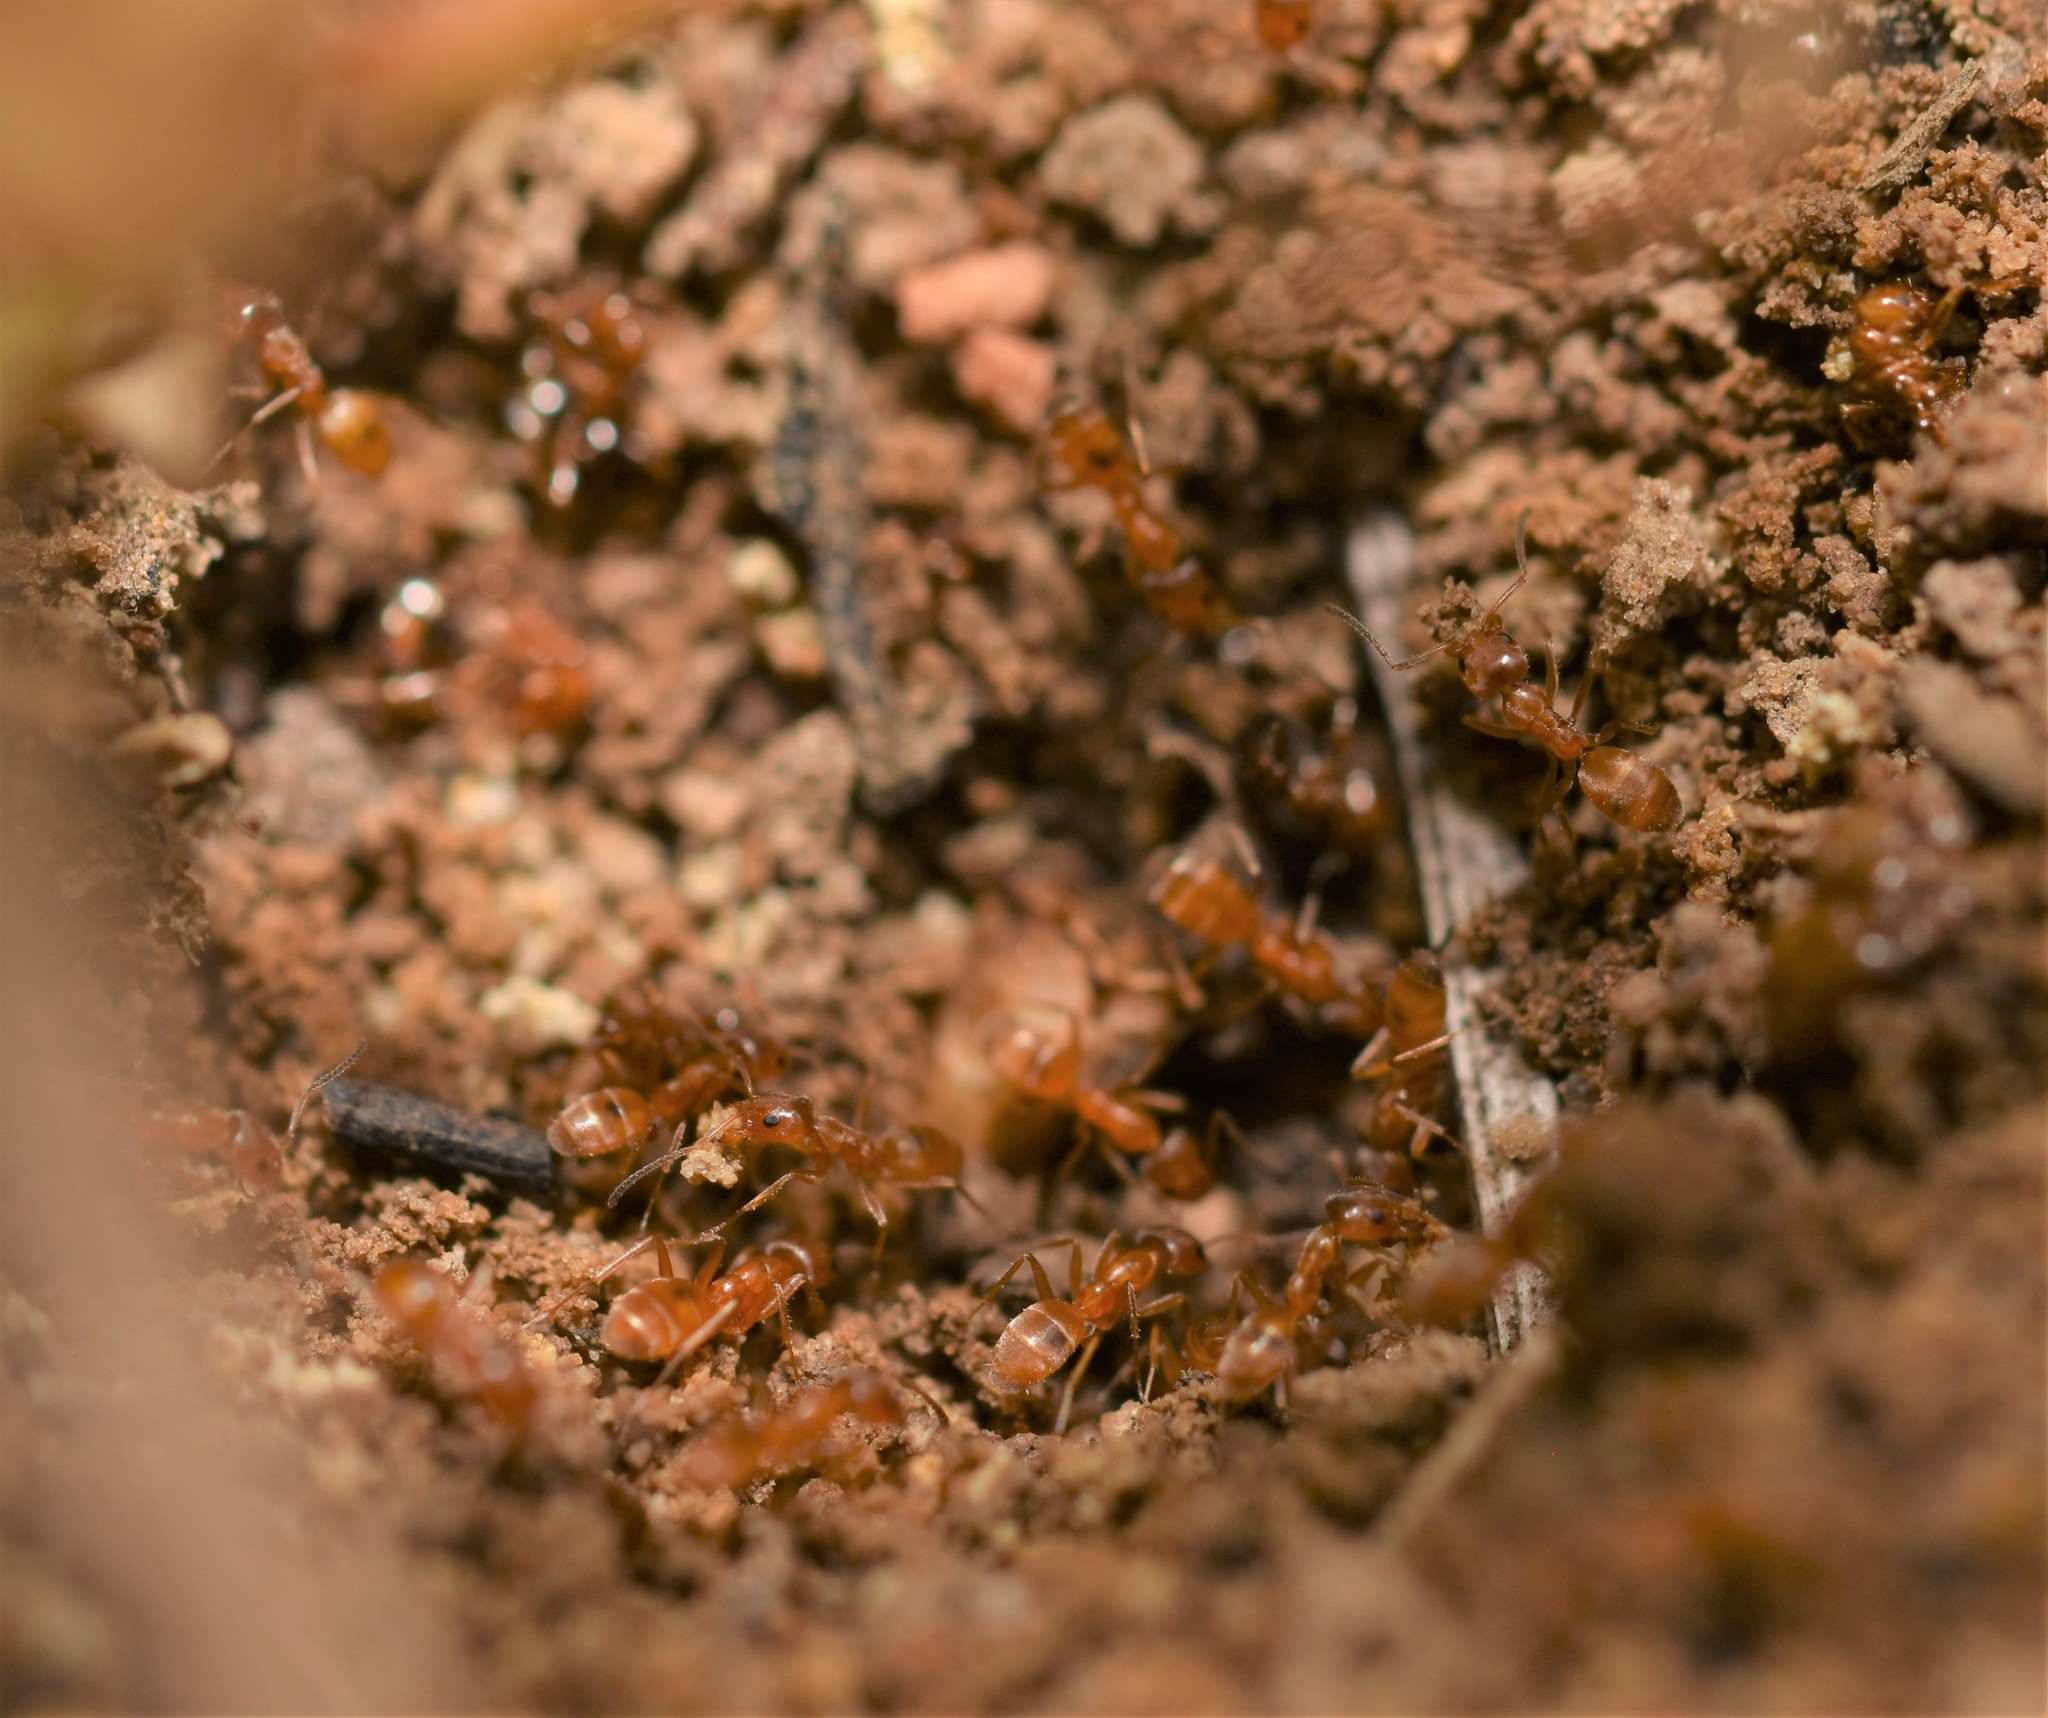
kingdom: Animalia
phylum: Arthropoda
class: Insecta
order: Hymenoptera
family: Formicidae
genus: Forelius
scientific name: Forelius mccooki
